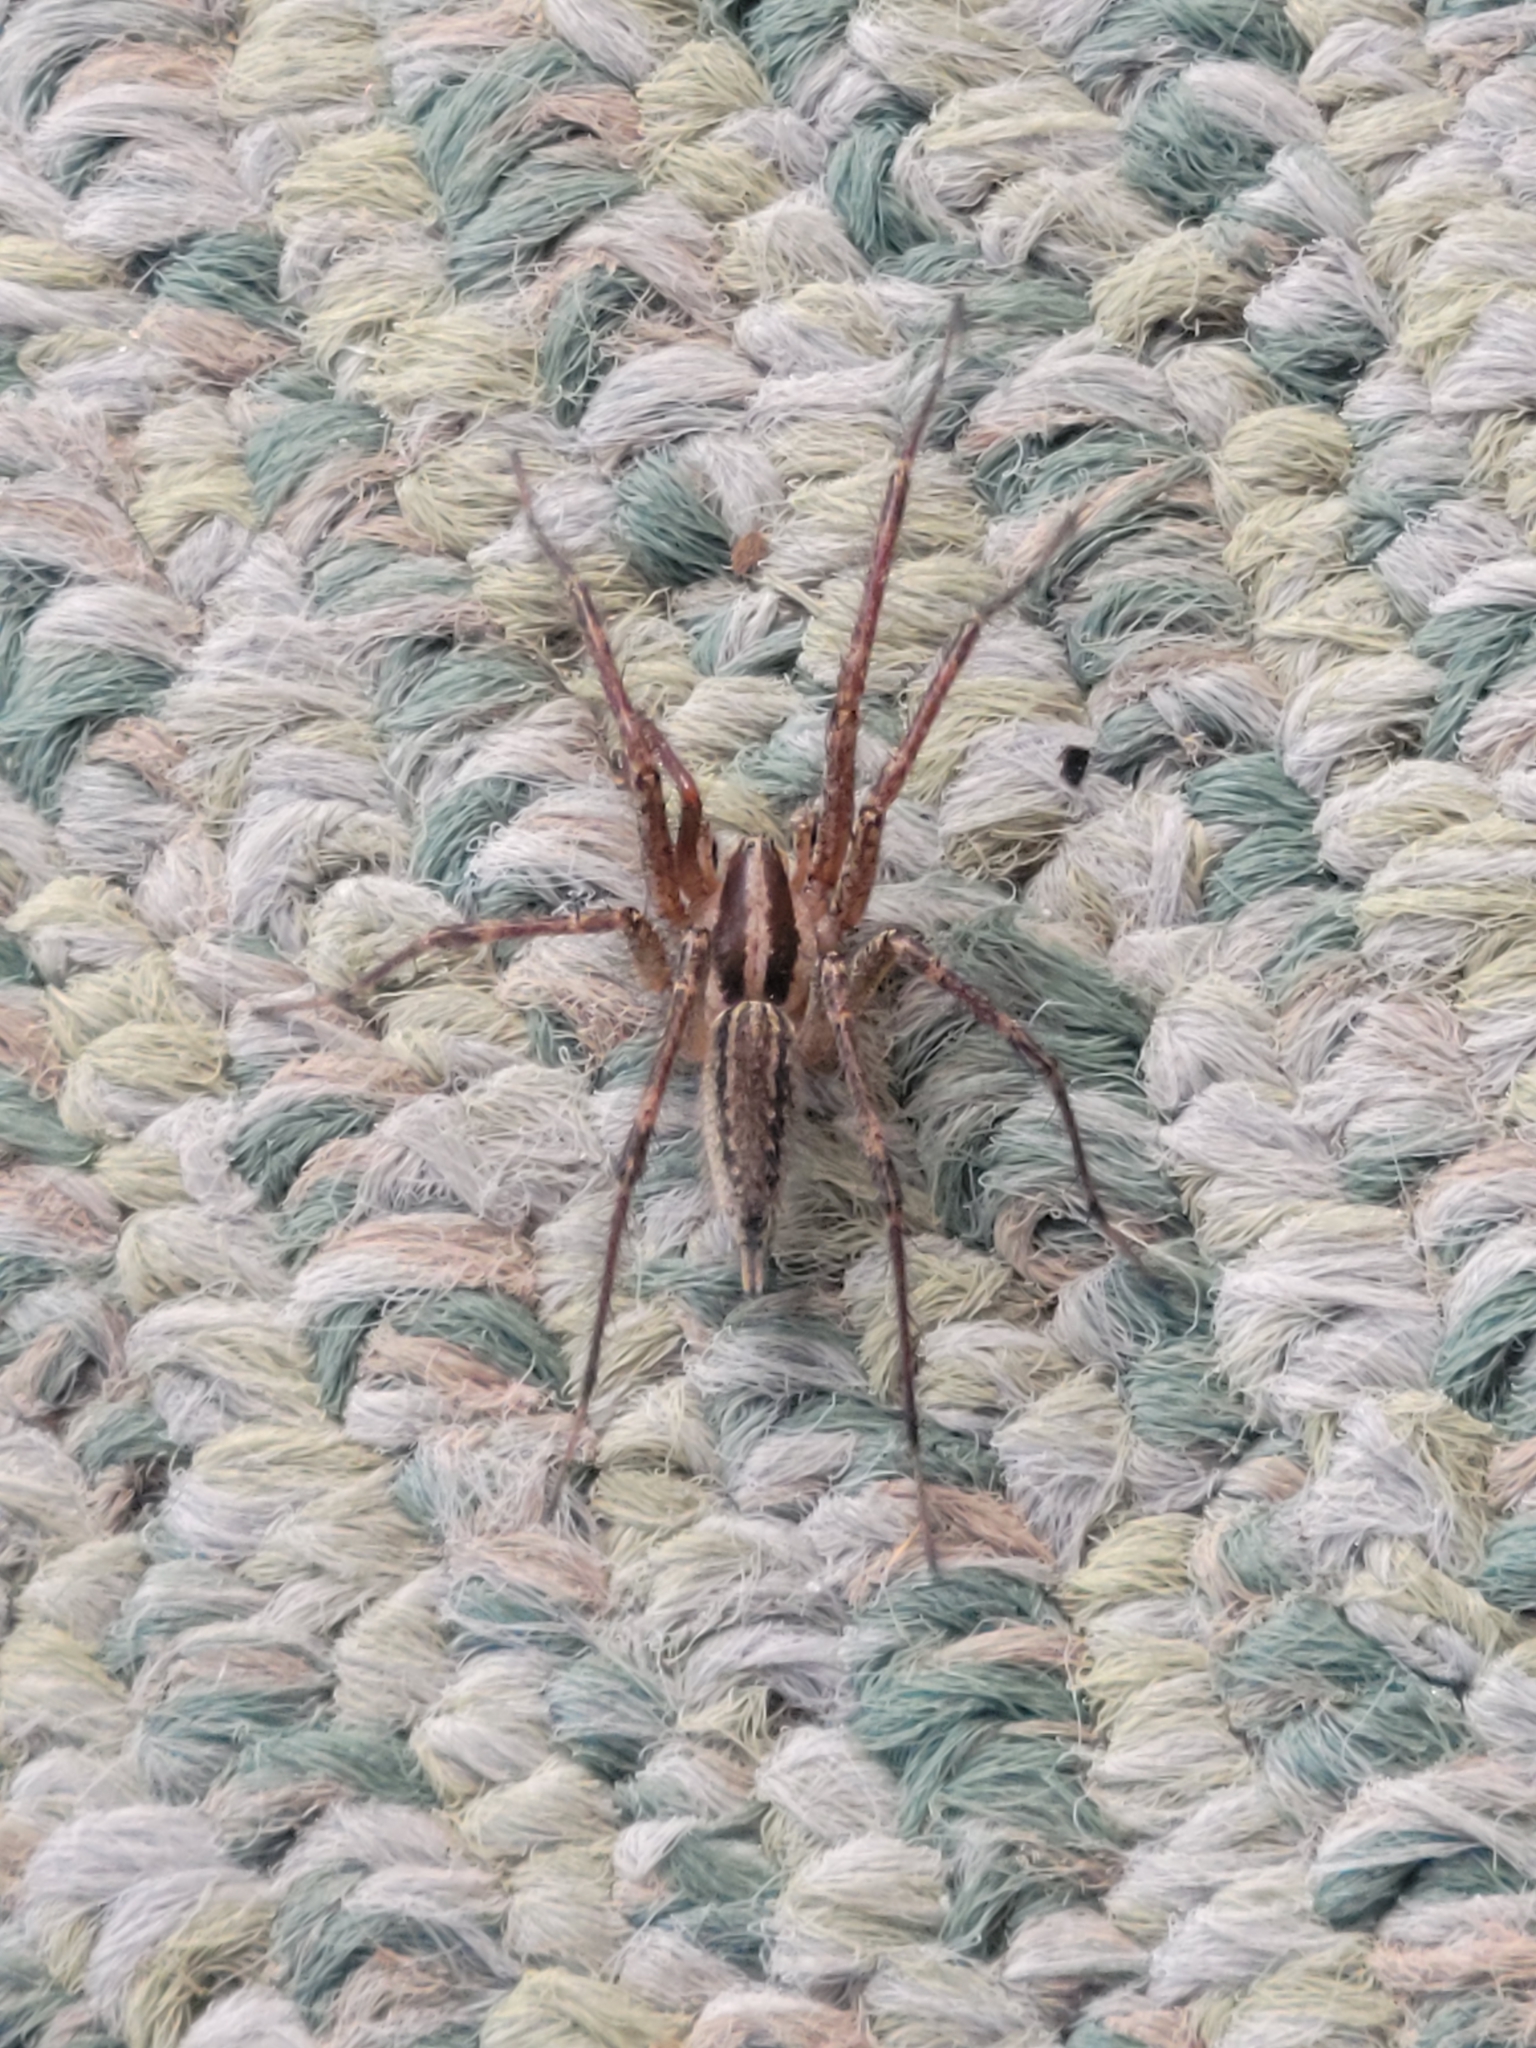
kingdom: Animalia
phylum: Arthropoda
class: Arachnida
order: Araneae
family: Agelenidae
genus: Agelenopsis
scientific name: Agelenopsis
